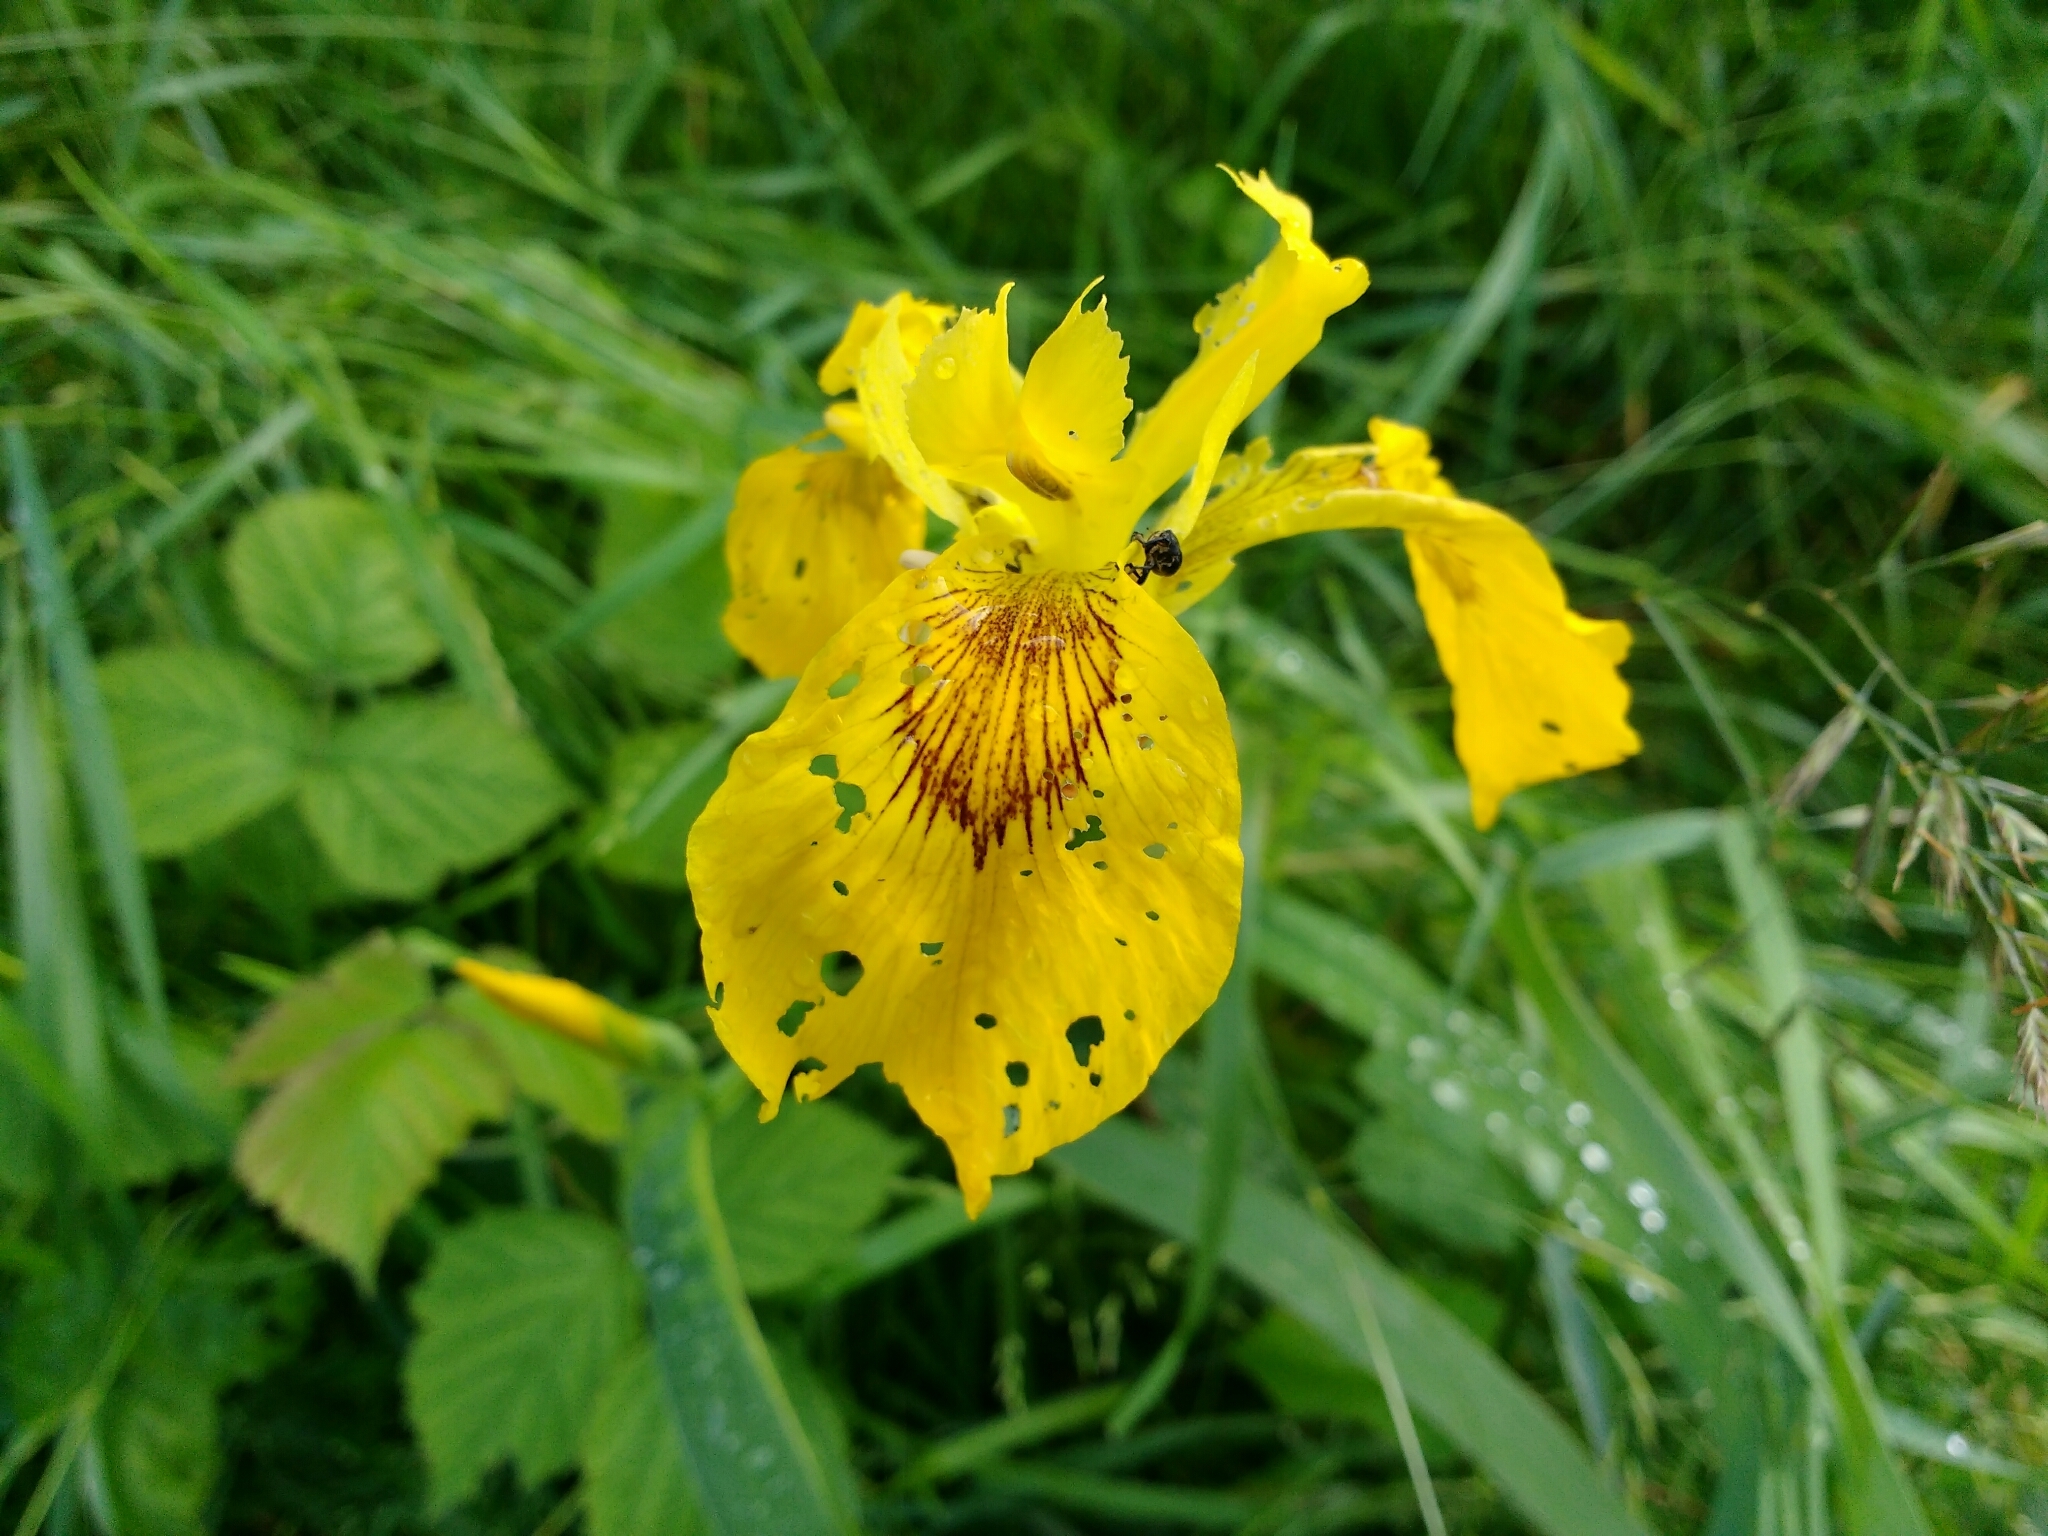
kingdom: Plantae
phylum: Tracheophyta
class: Liliopsida
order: Asparagales
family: Iridaceae
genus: Iris
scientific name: Iris pseudacorus
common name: Yellow flag
